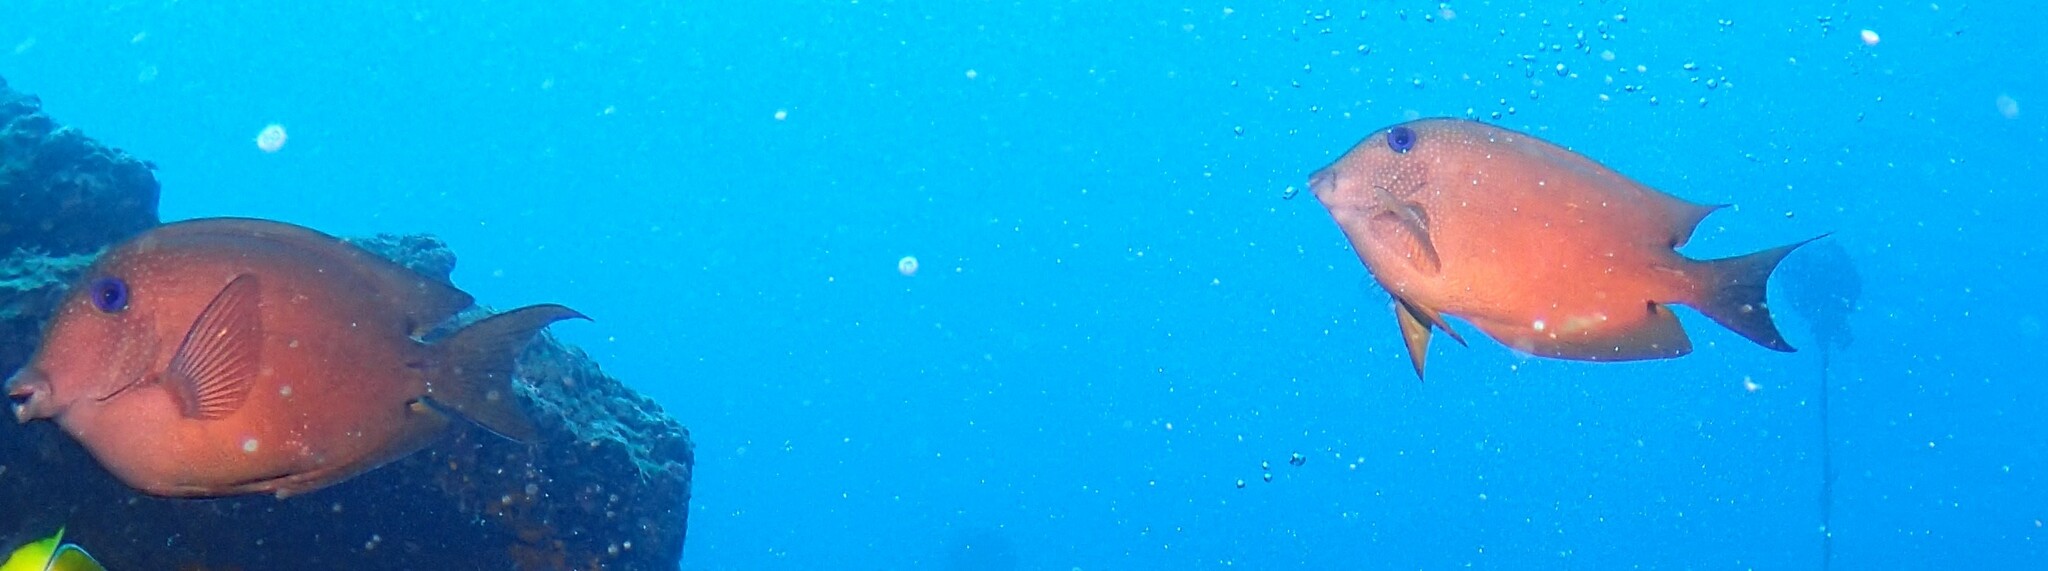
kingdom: Animalia
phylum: Chordata
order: Perciformes
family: Acanthuridae
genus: Ctenochaetus
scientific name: Ctenochaetus binotatus
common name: Two-spot bristletooth
